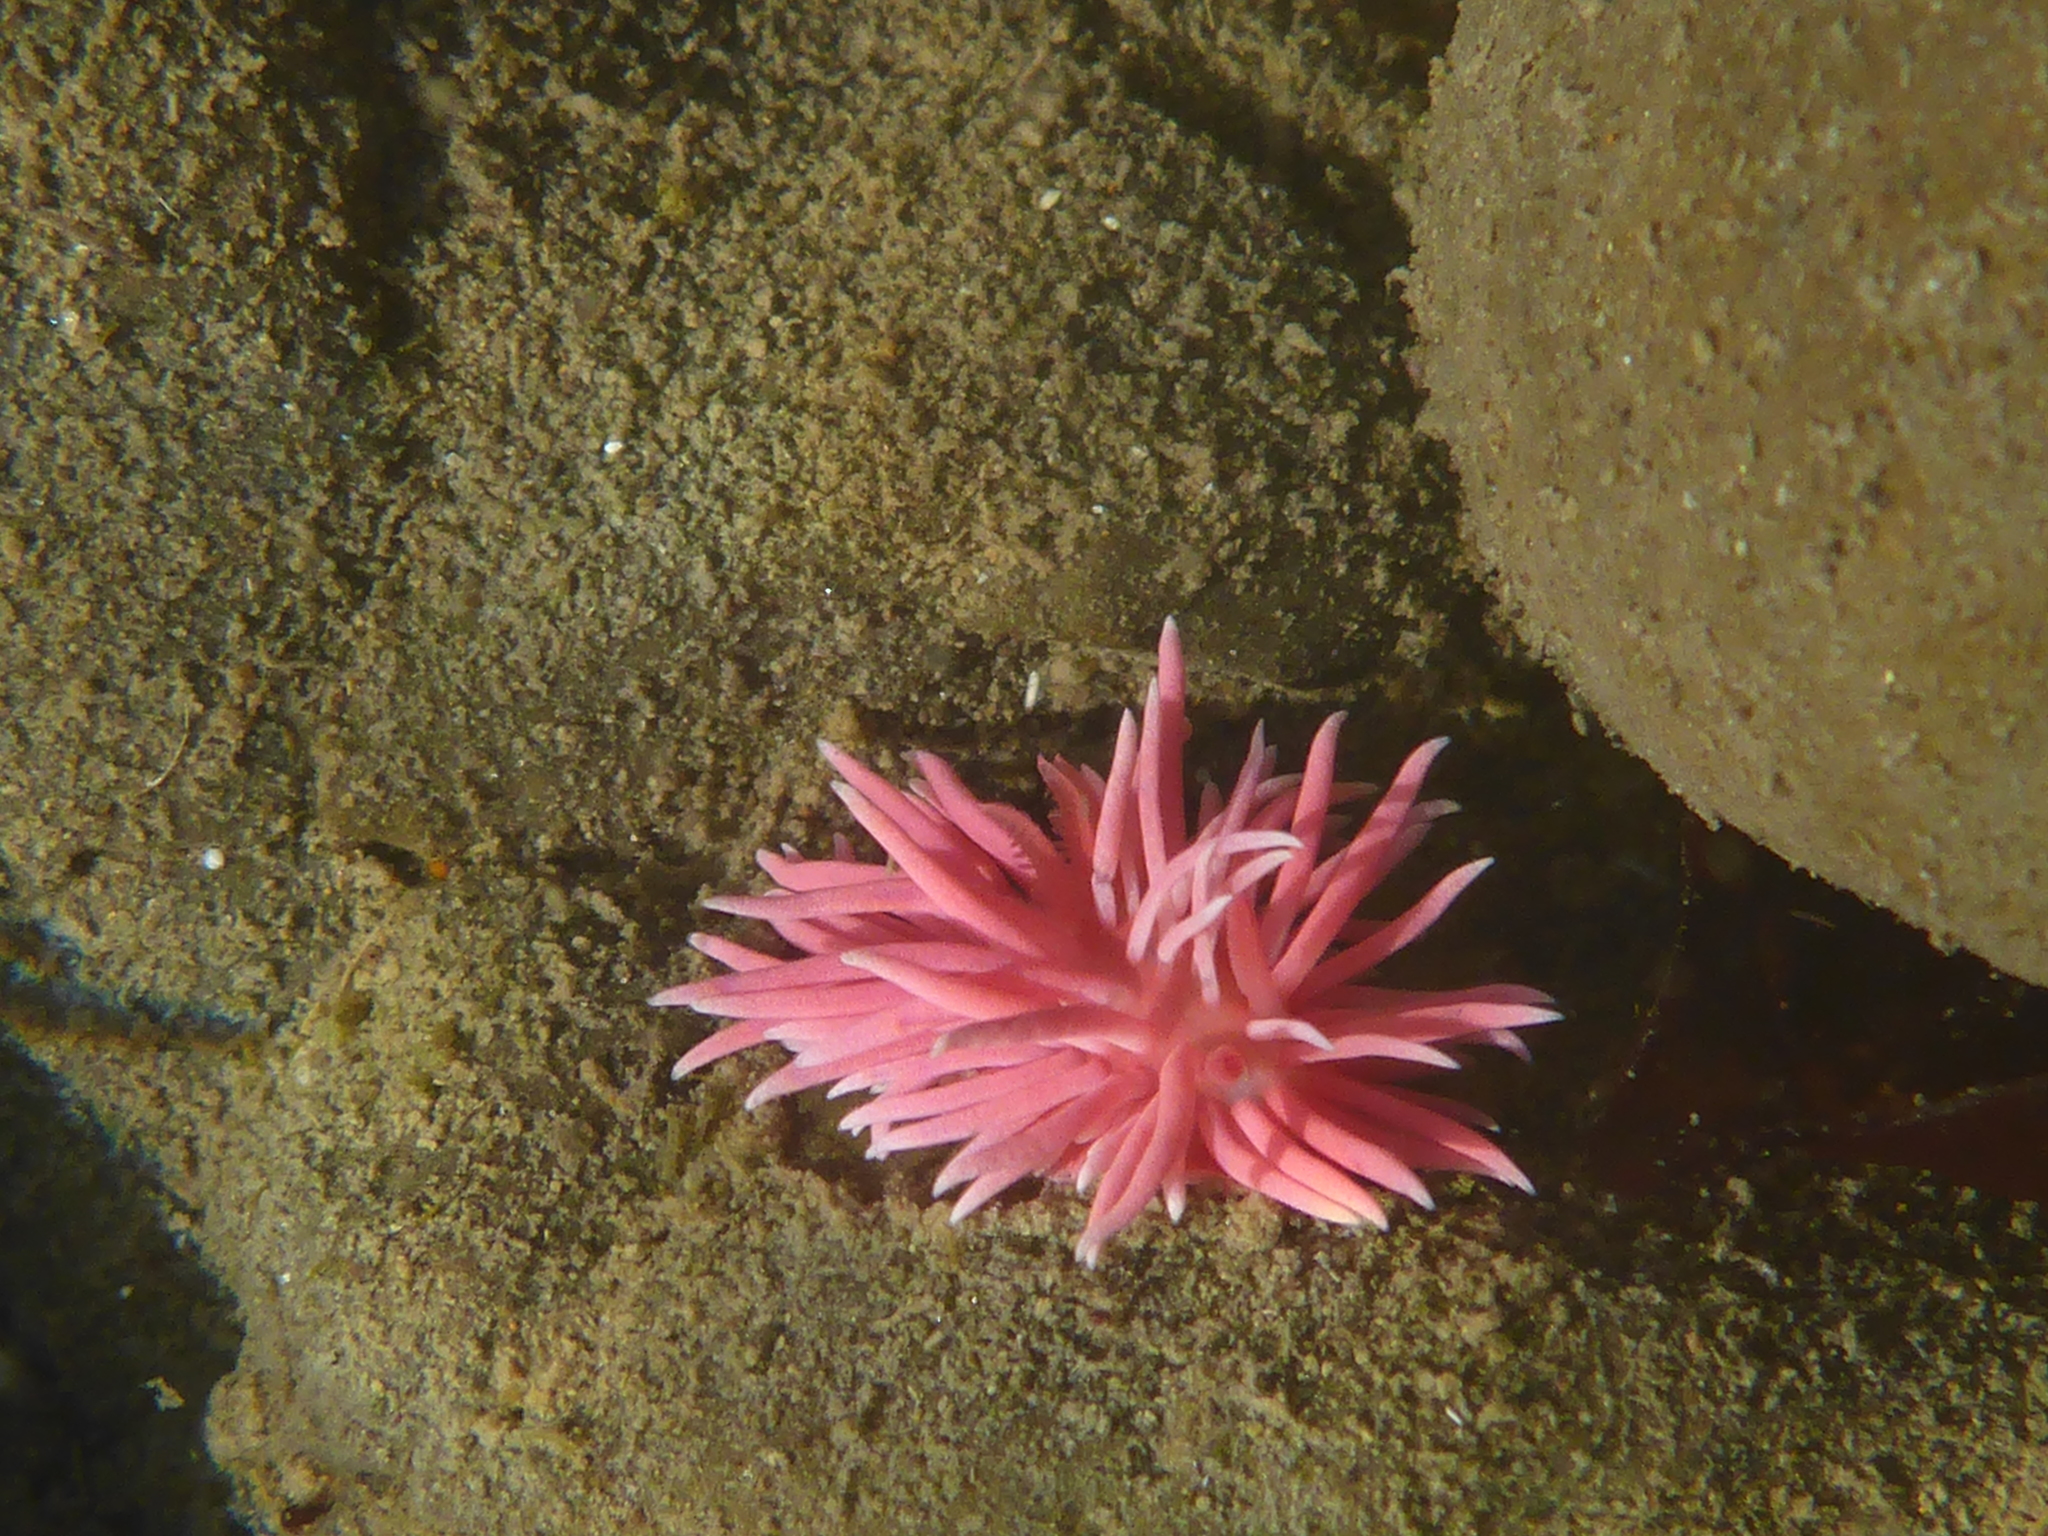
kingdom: Animalia
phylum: Mollusca
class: Gastropoda
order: Nudibranchia
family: Goniodorididae
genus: Okenia
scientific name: Okenia
